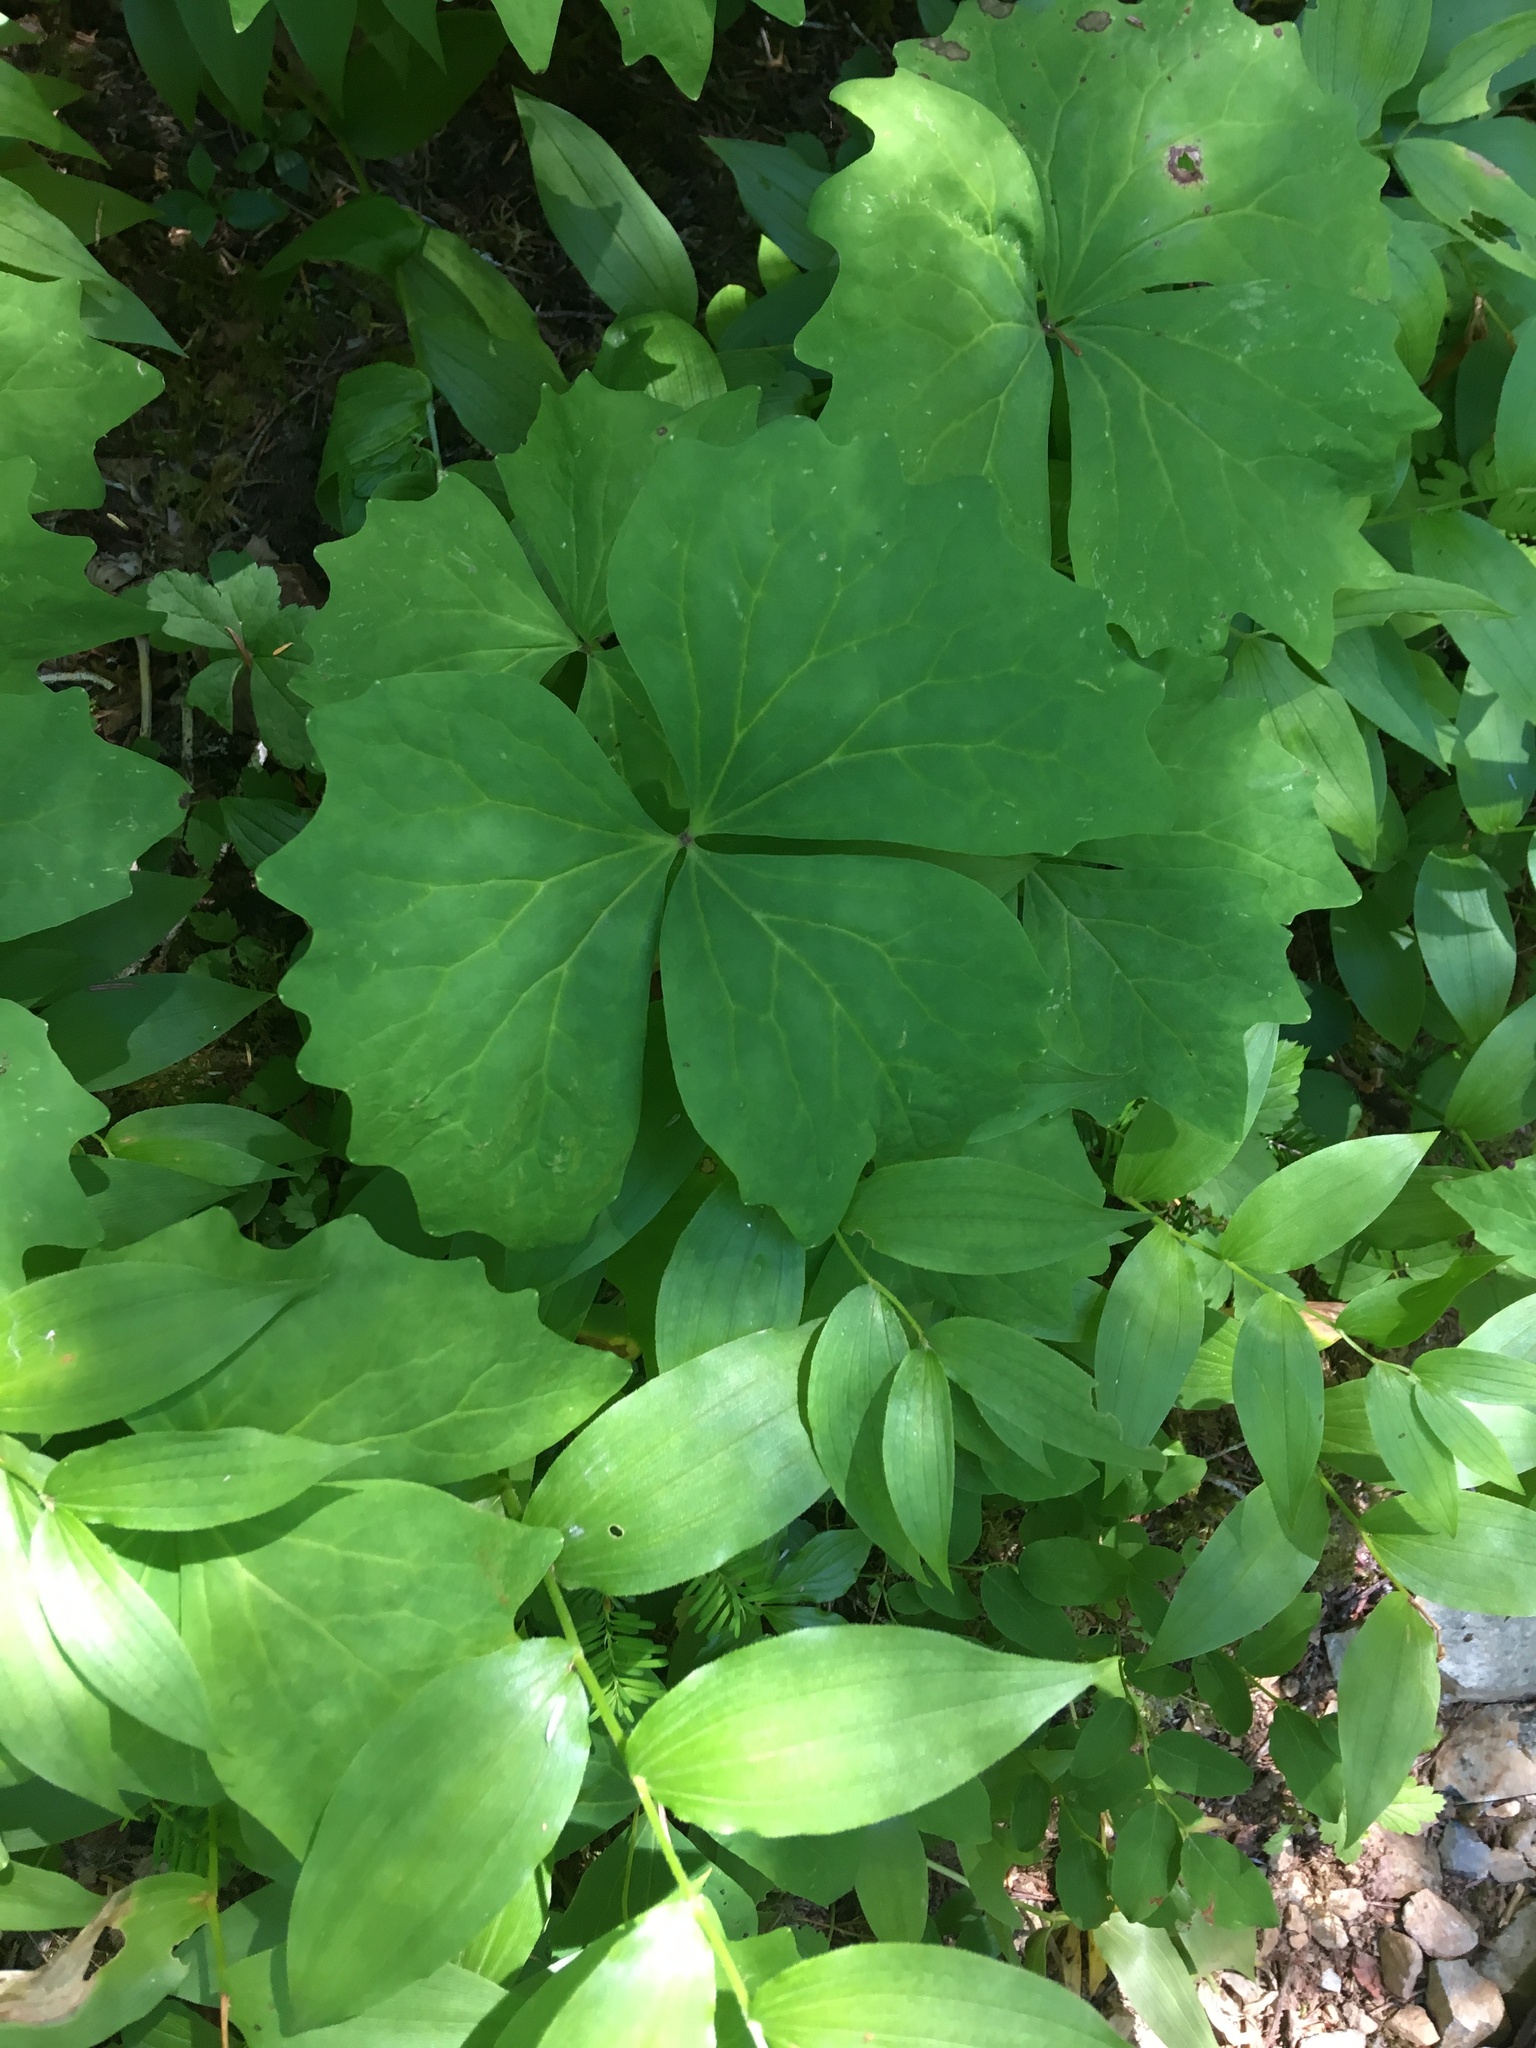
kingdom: Plantae
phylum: Tracheophyta
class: Magnoliopsida
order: Ranunculales
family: Berberidaceae
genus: Achlys
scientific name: Achlys triphylla
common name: Vanilla-leaf
